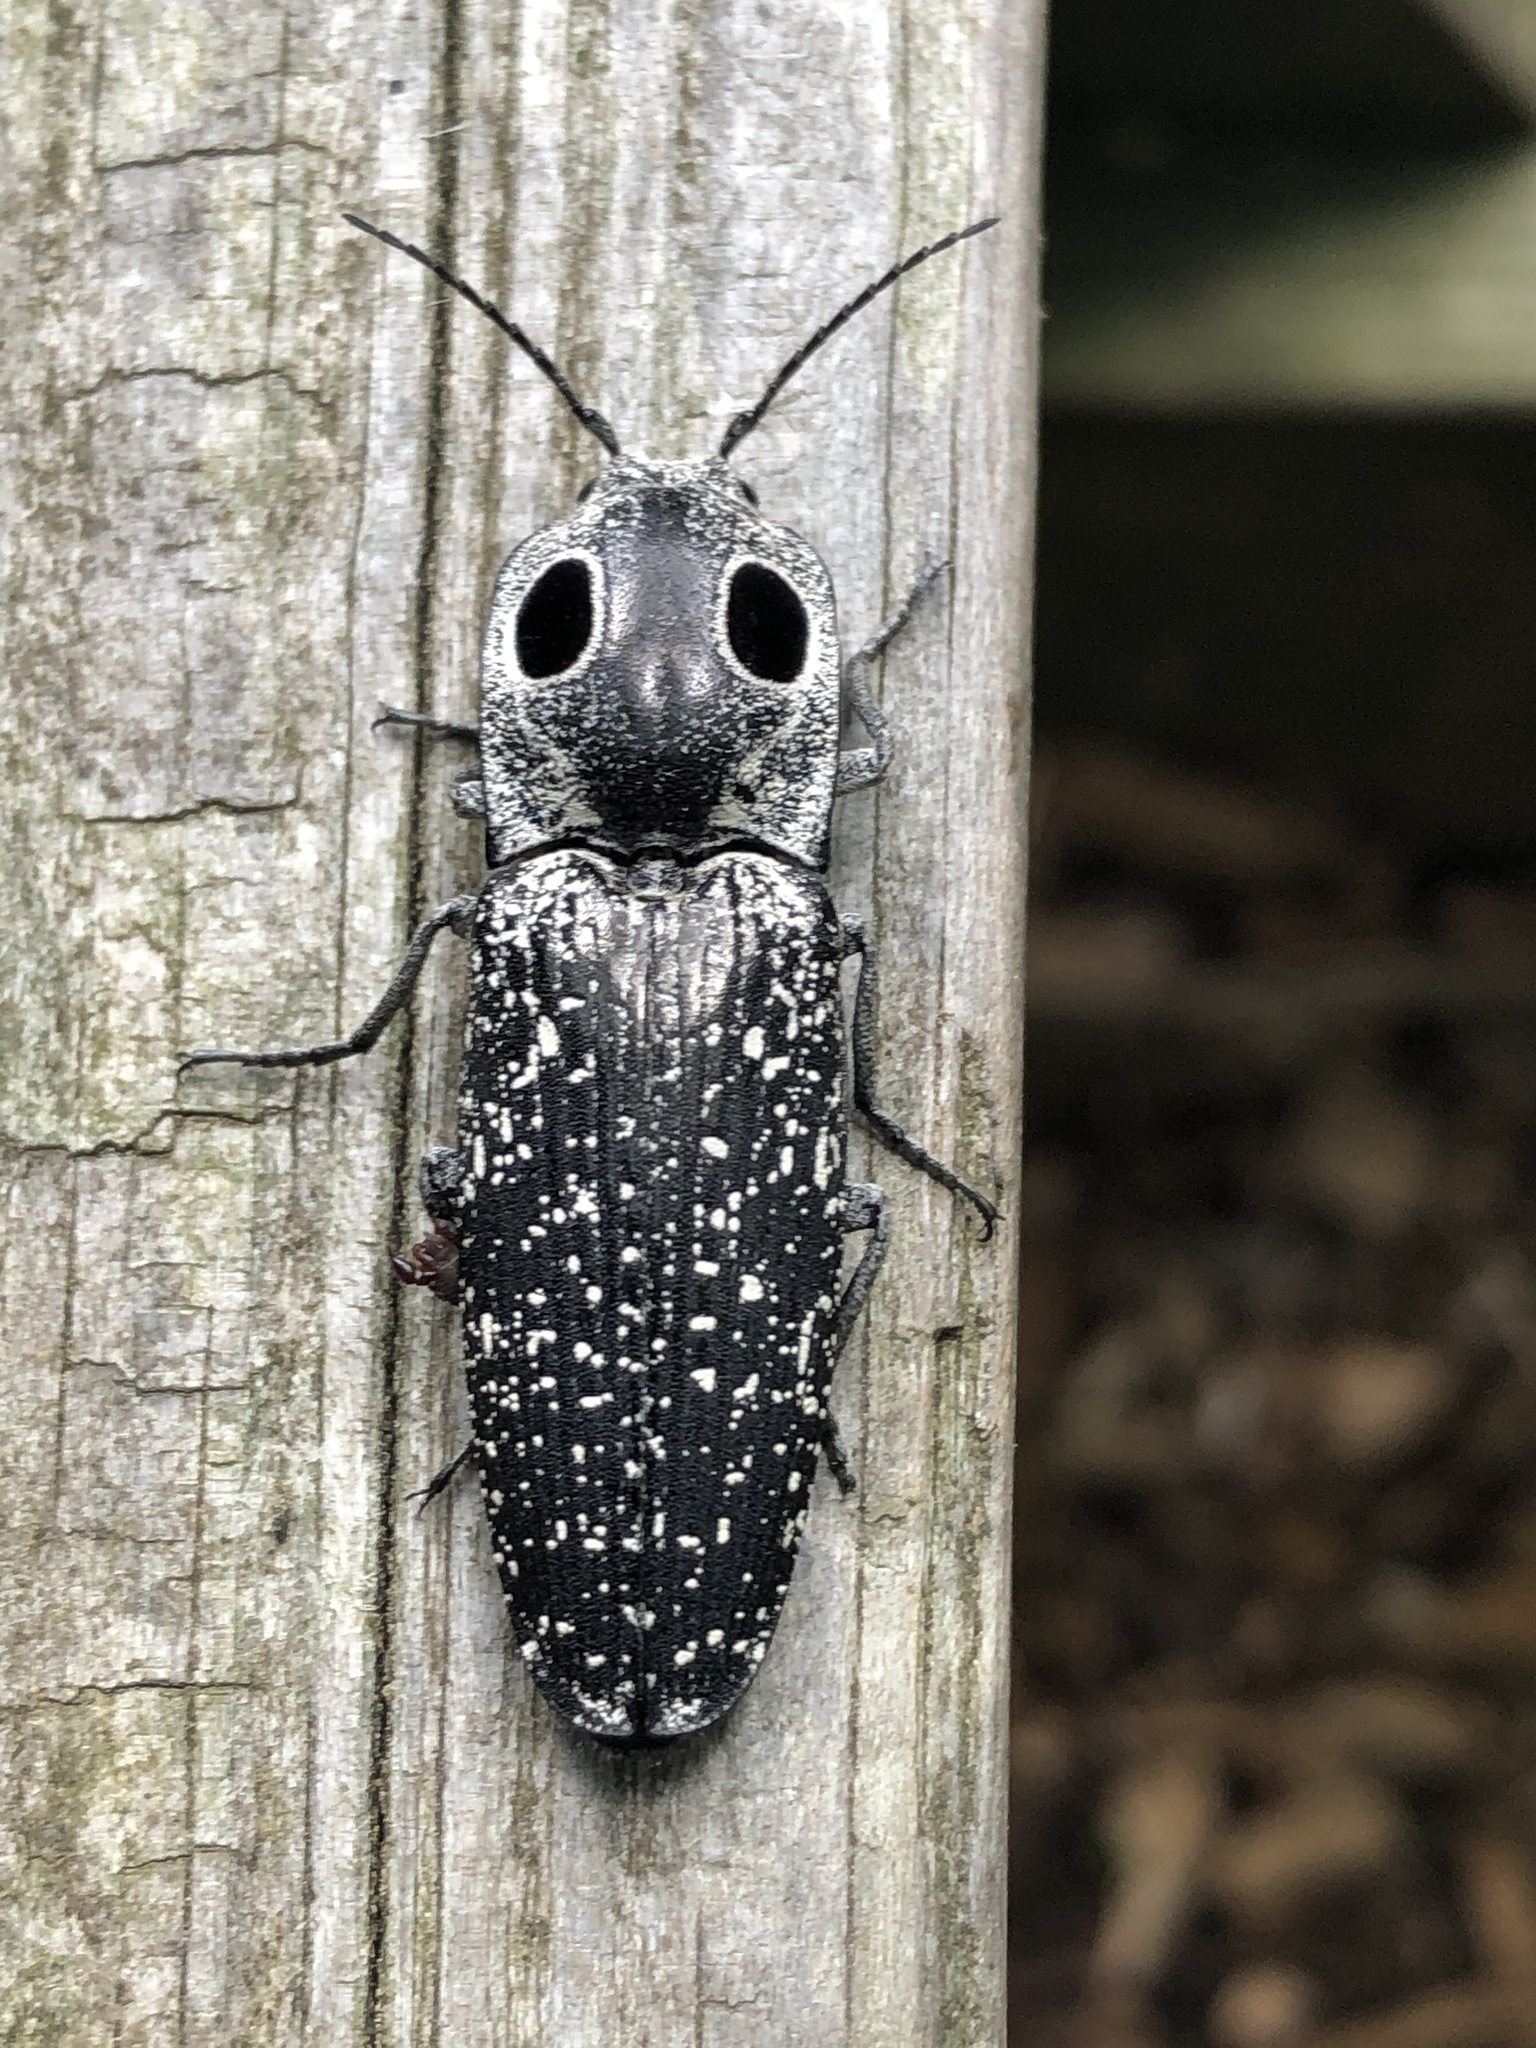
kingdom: Animalia
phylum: Arthropoda
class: Insecta
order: Coleoptera
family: Elateridae
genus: Alaus
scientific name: Alaus oculatus
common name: Eastern eyed click beetle
